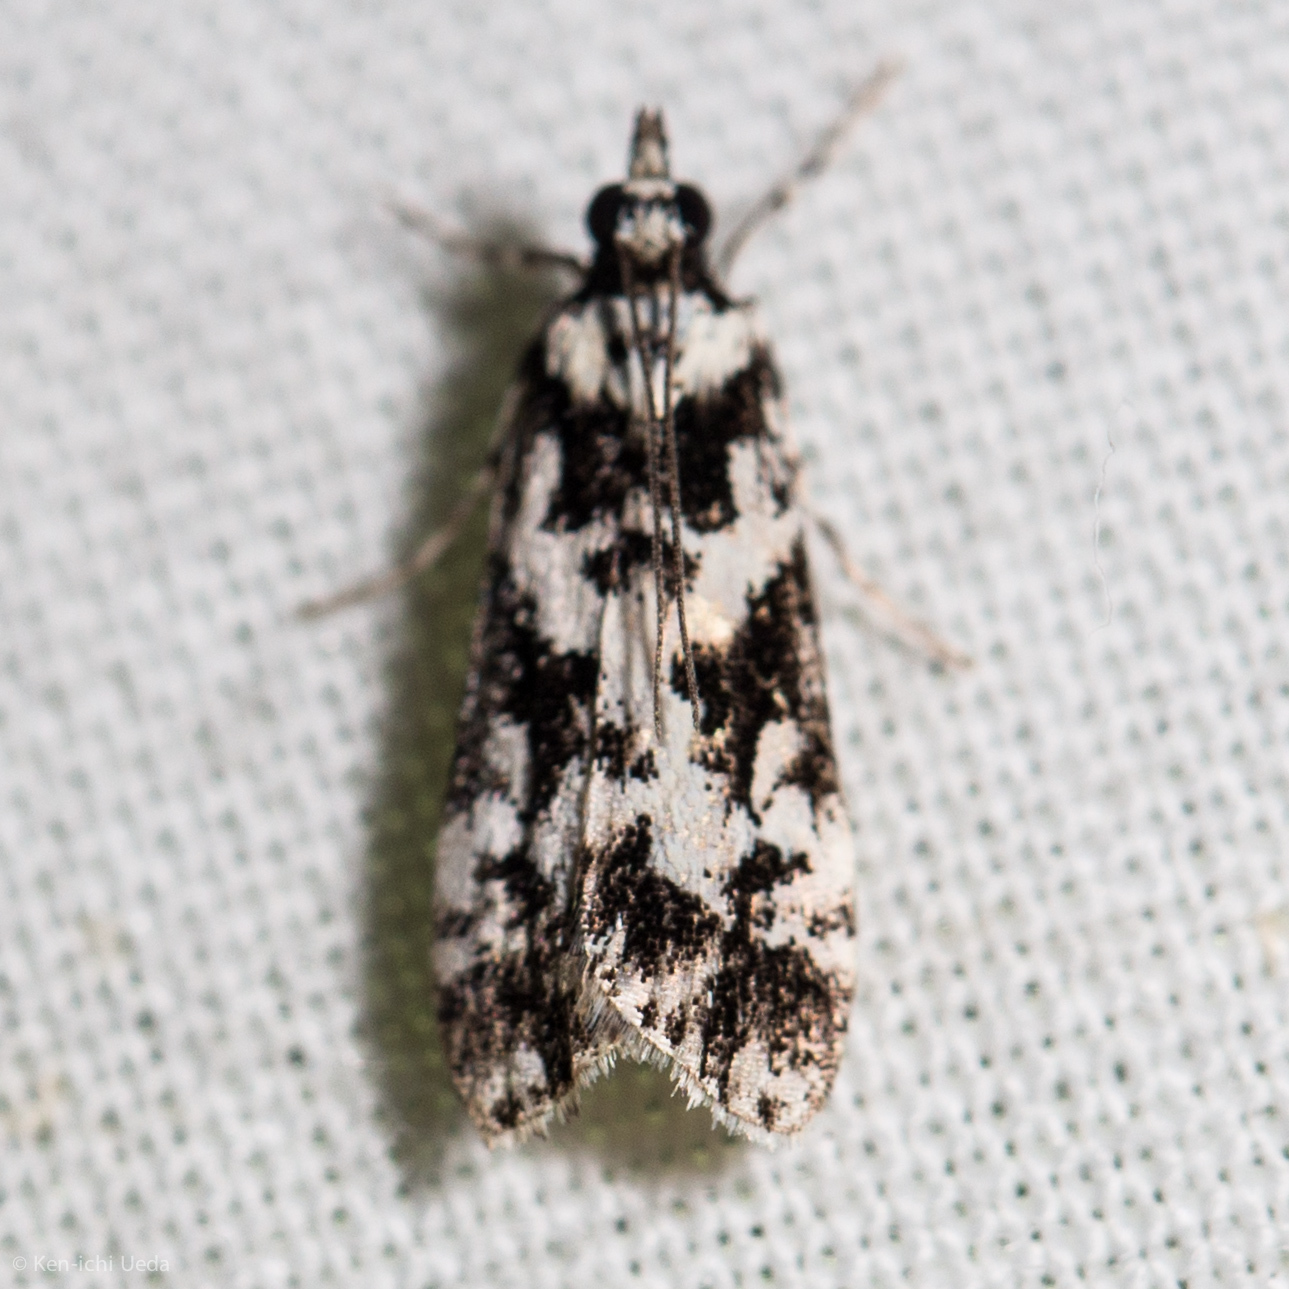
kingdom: Animalia
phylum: Arthropoda
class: Insecta
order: Lepidoptera
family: Crambidae
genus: Scoparia
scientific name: Scoparia exhibitalis
